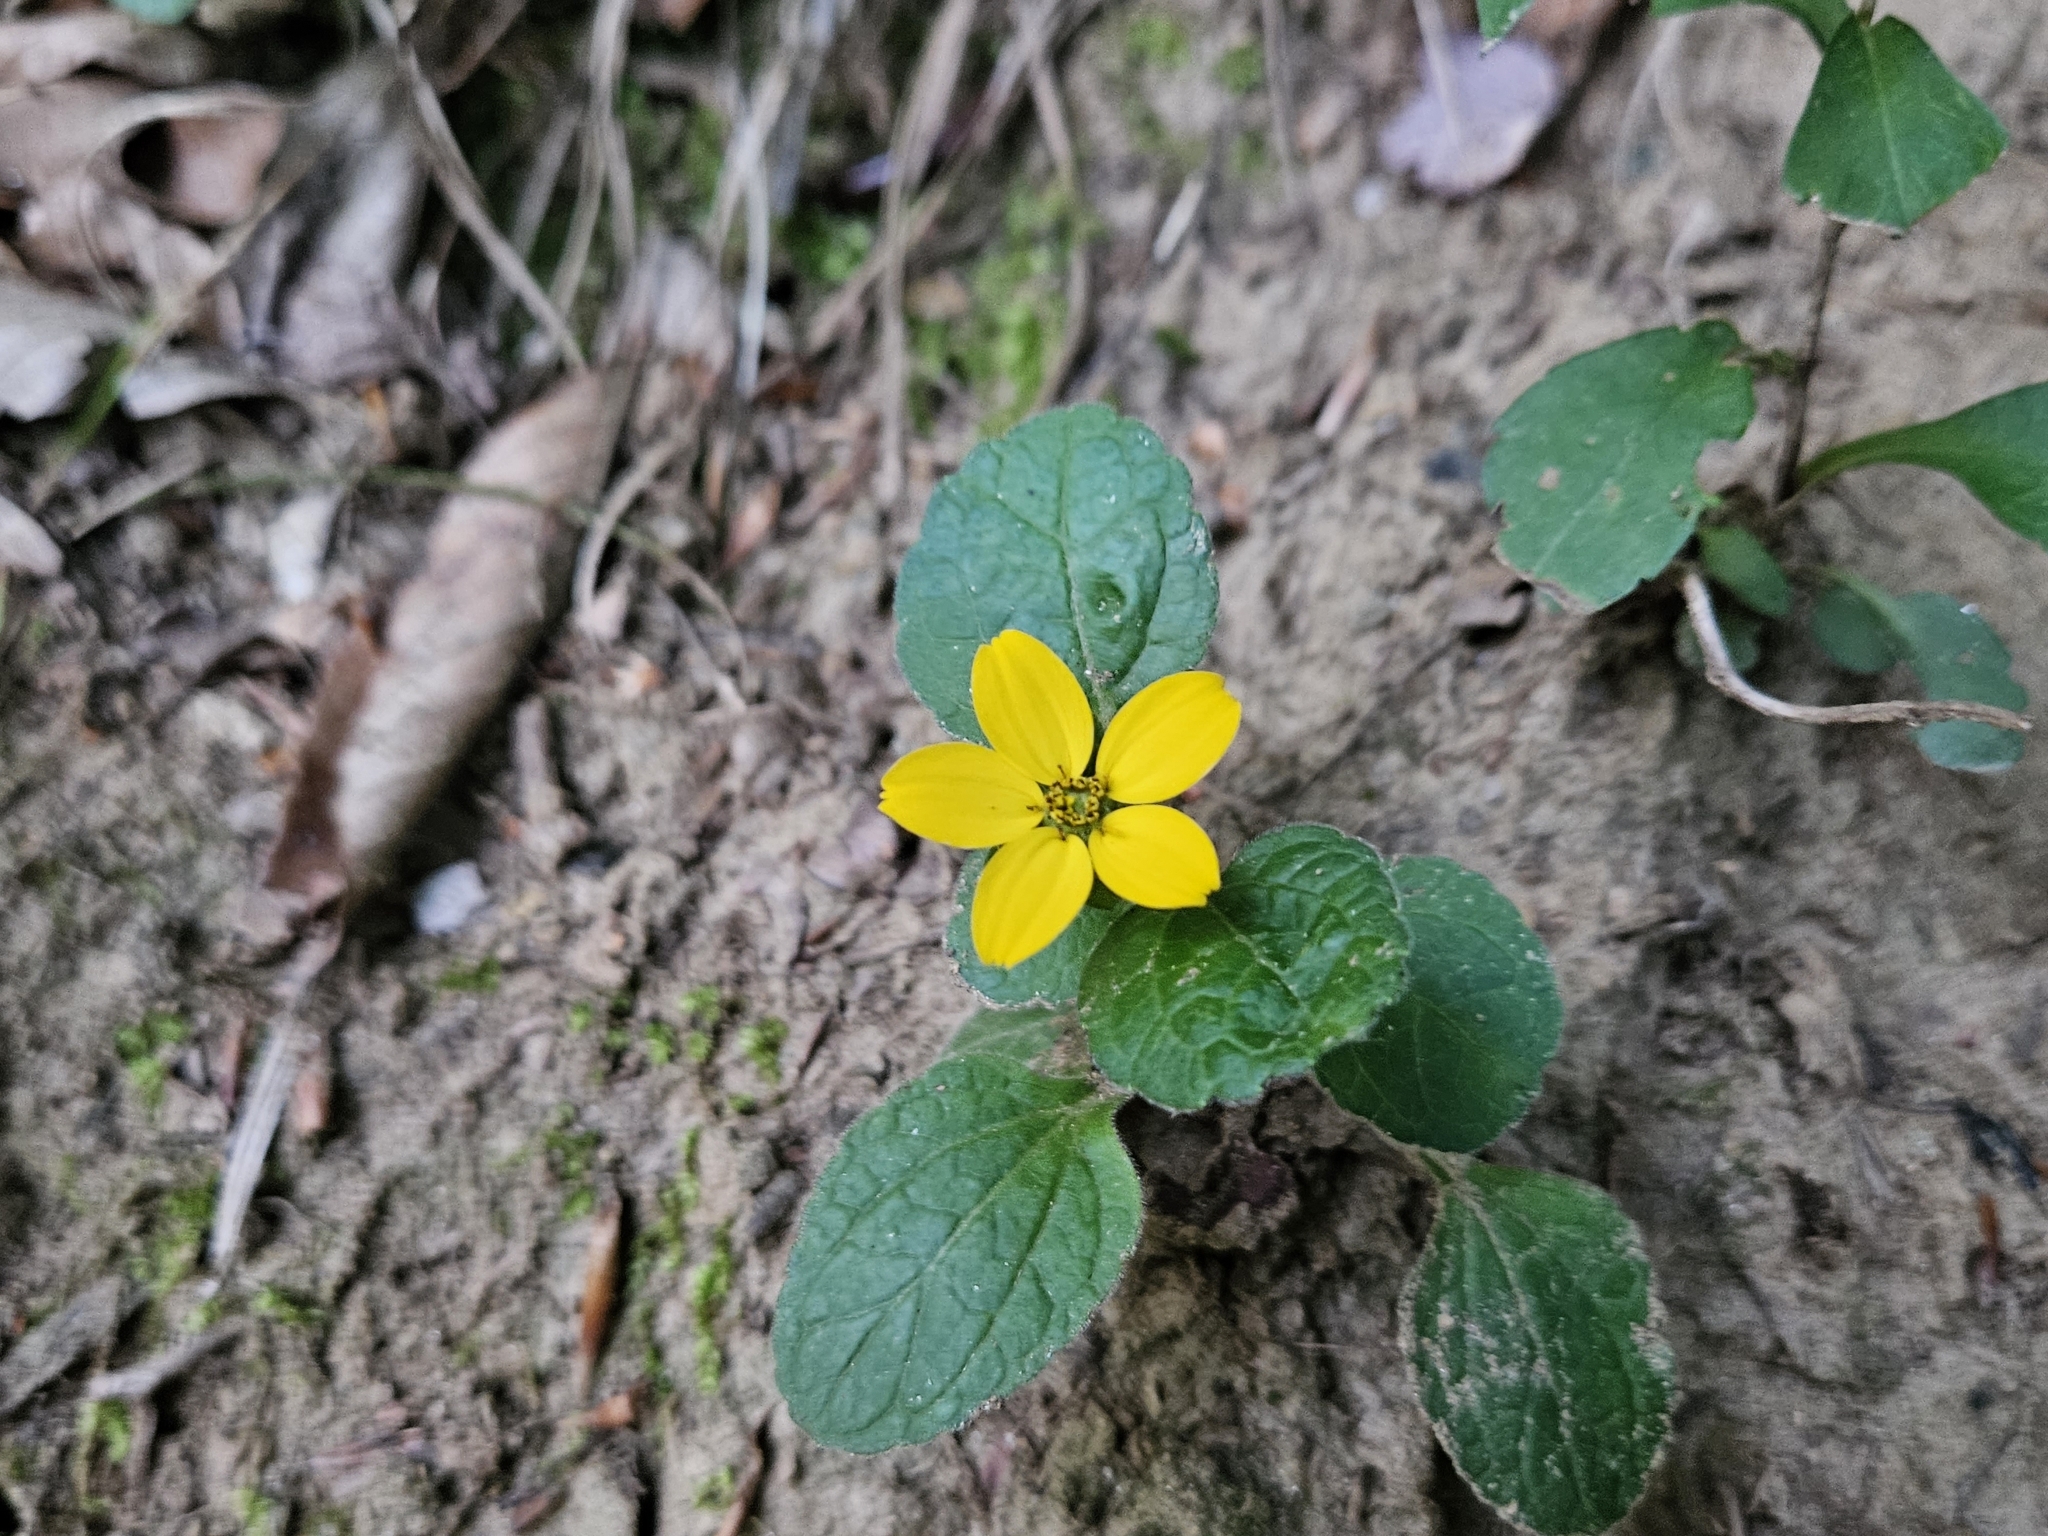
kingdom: Plantae
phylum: Tracheophyta
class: Magnoliopsida
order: Asterales
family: Asteraceae
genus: Chrysogonum
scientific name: Chrysogonum virginianum
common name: Golden-knee
